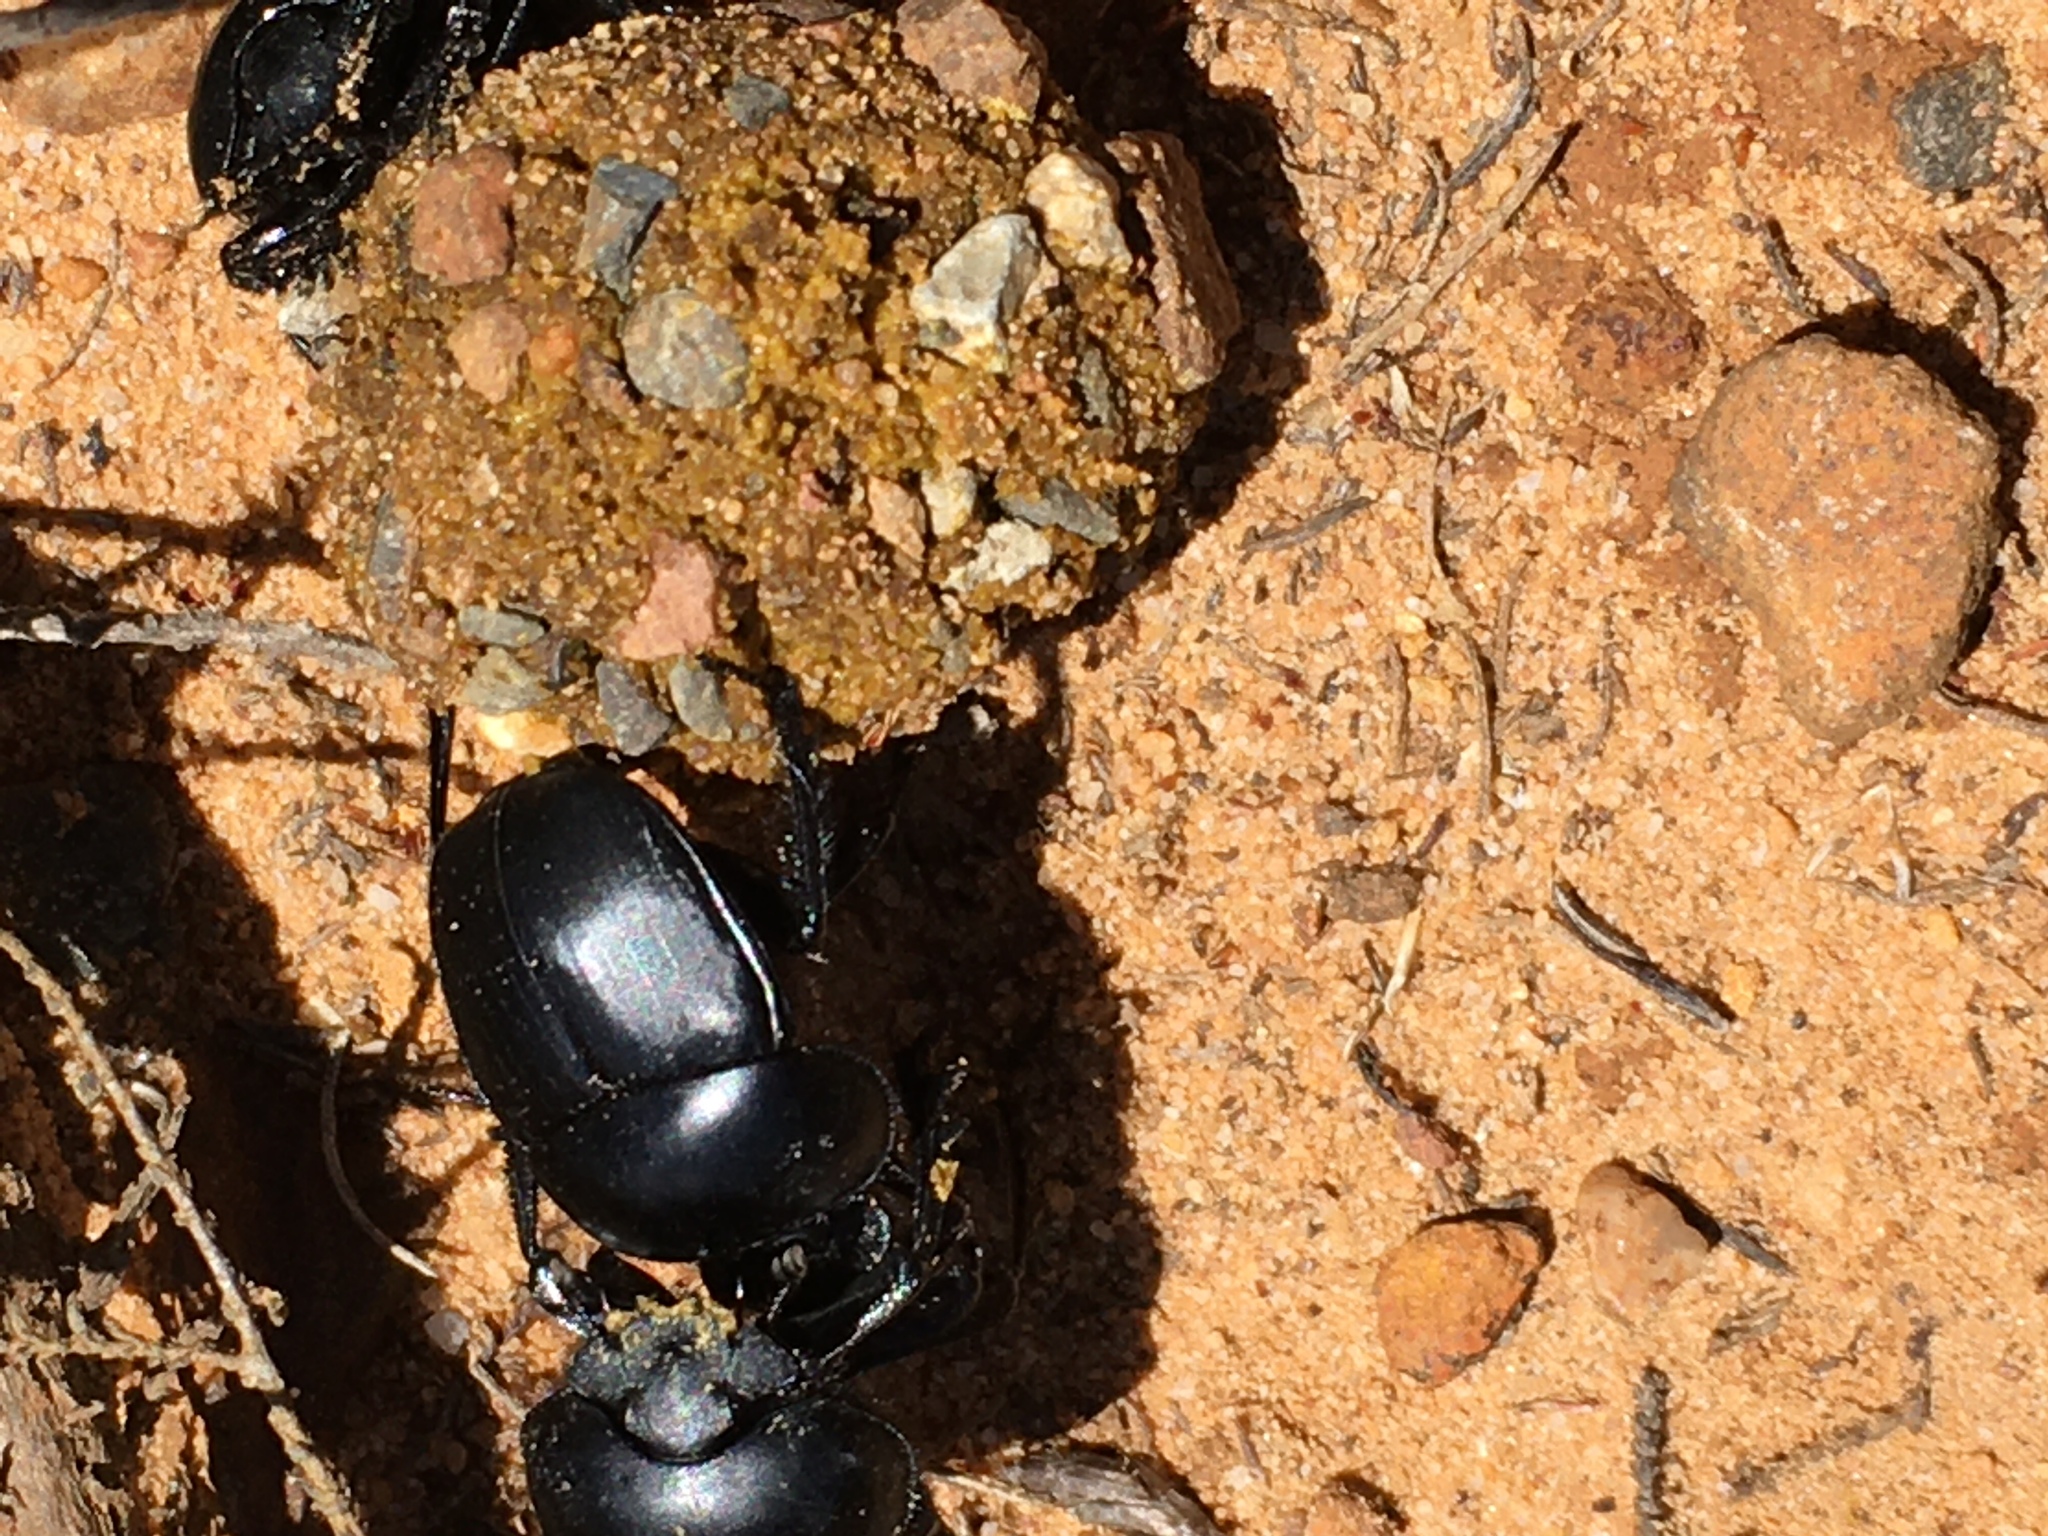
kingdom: Animalia
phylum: Arthropoda
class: Insecta
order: Coleoptera
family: Scarabaeidae
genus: Scarabaeus
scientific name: Scarabaeus convexus
